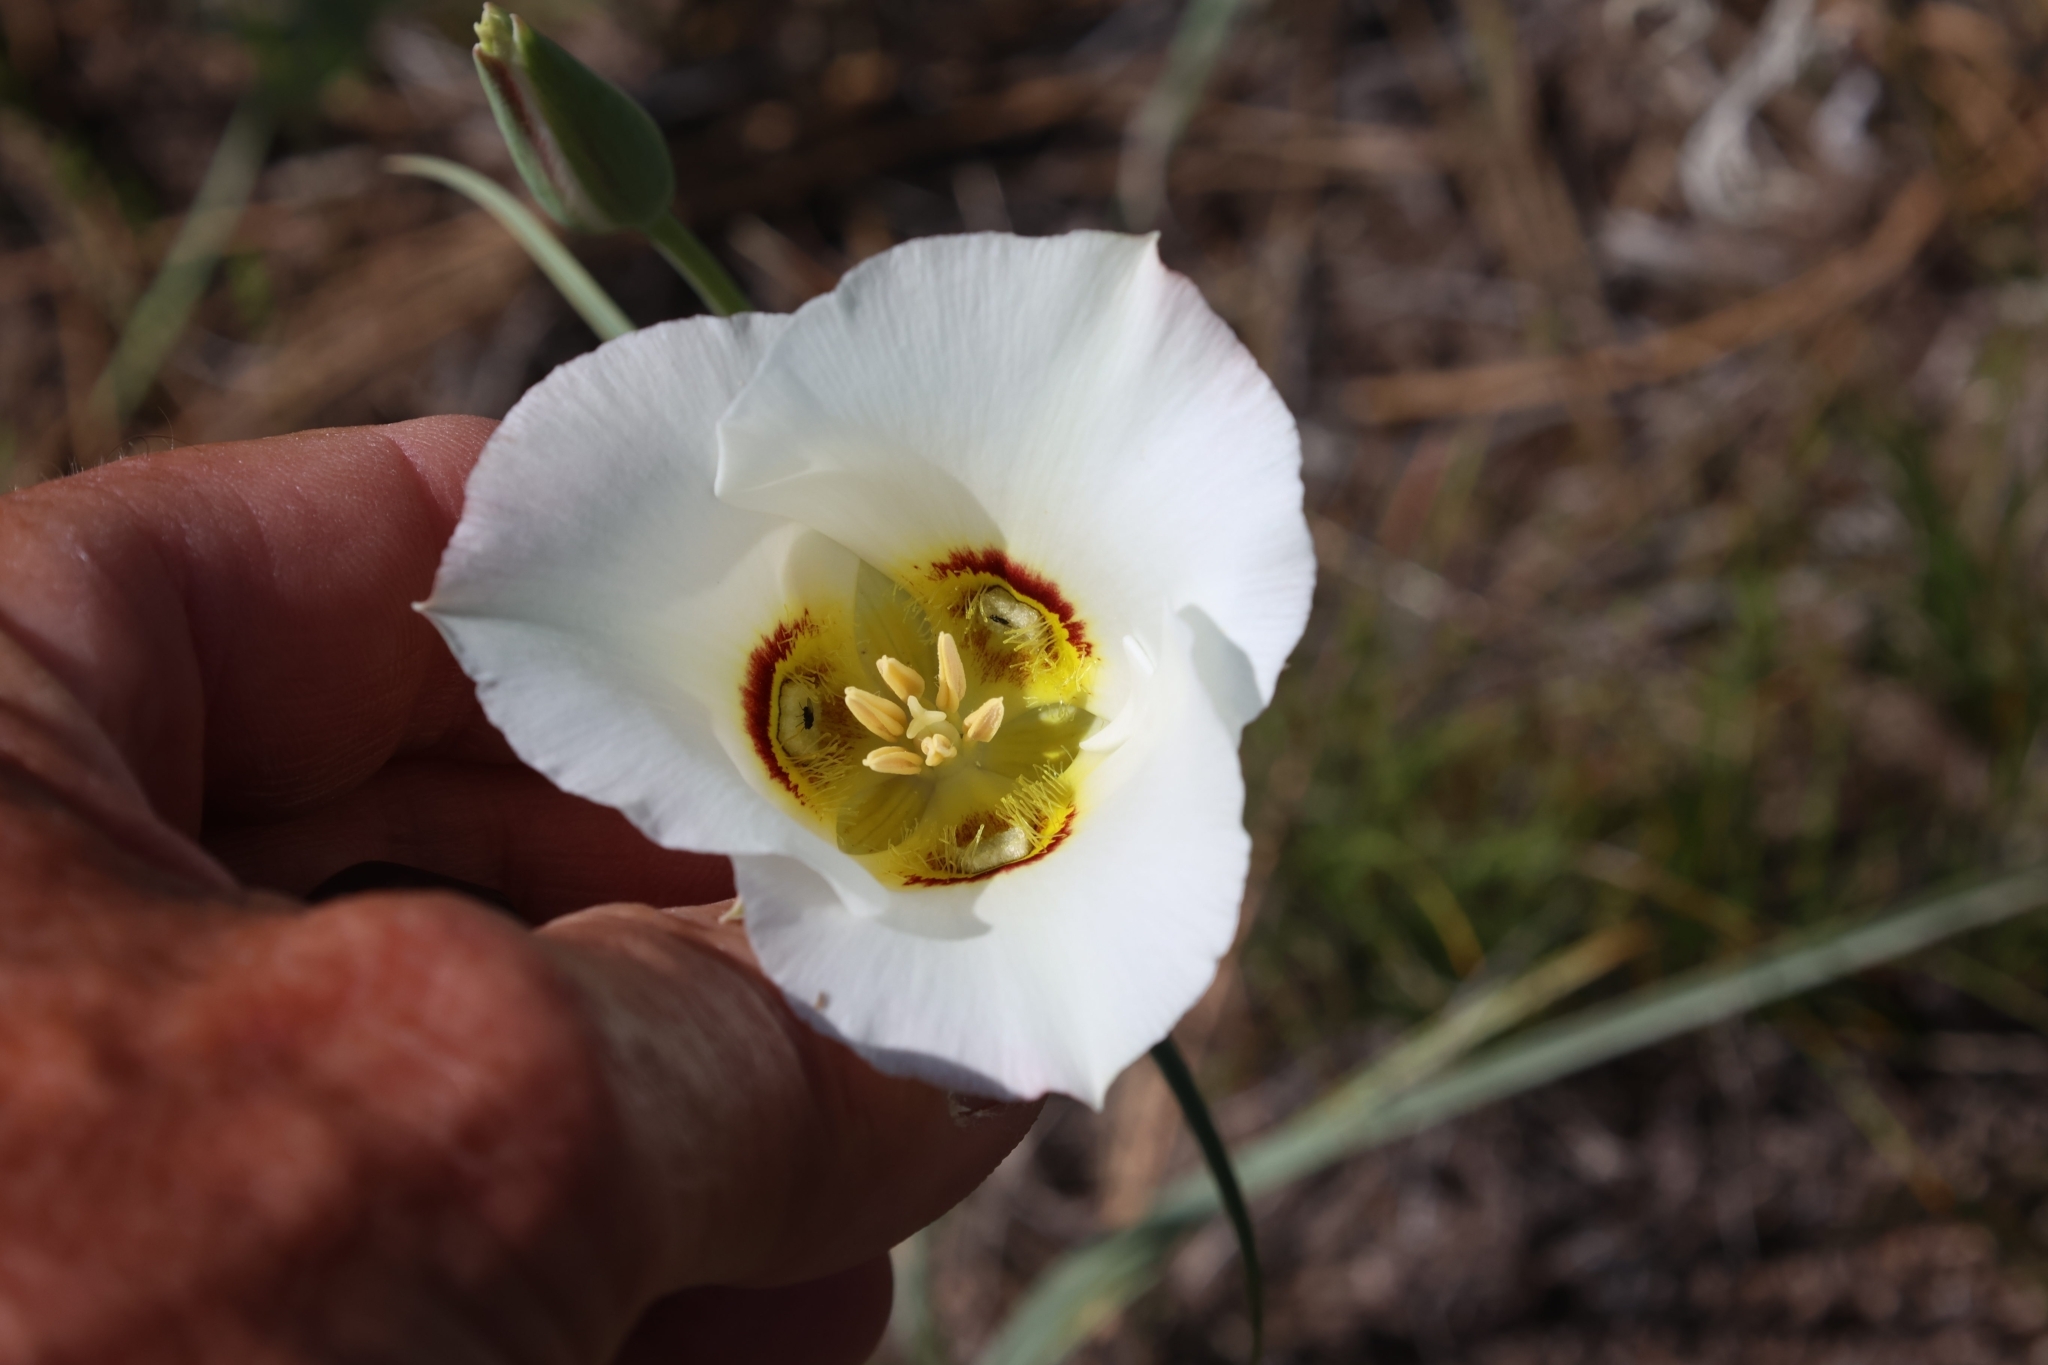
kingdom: Plantae
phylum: Tracheophyta
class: Liliopsida
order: Liliales
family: Liliaceae
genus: Calochortus
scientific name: Calochortus nuttallii
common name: Sego-lily
